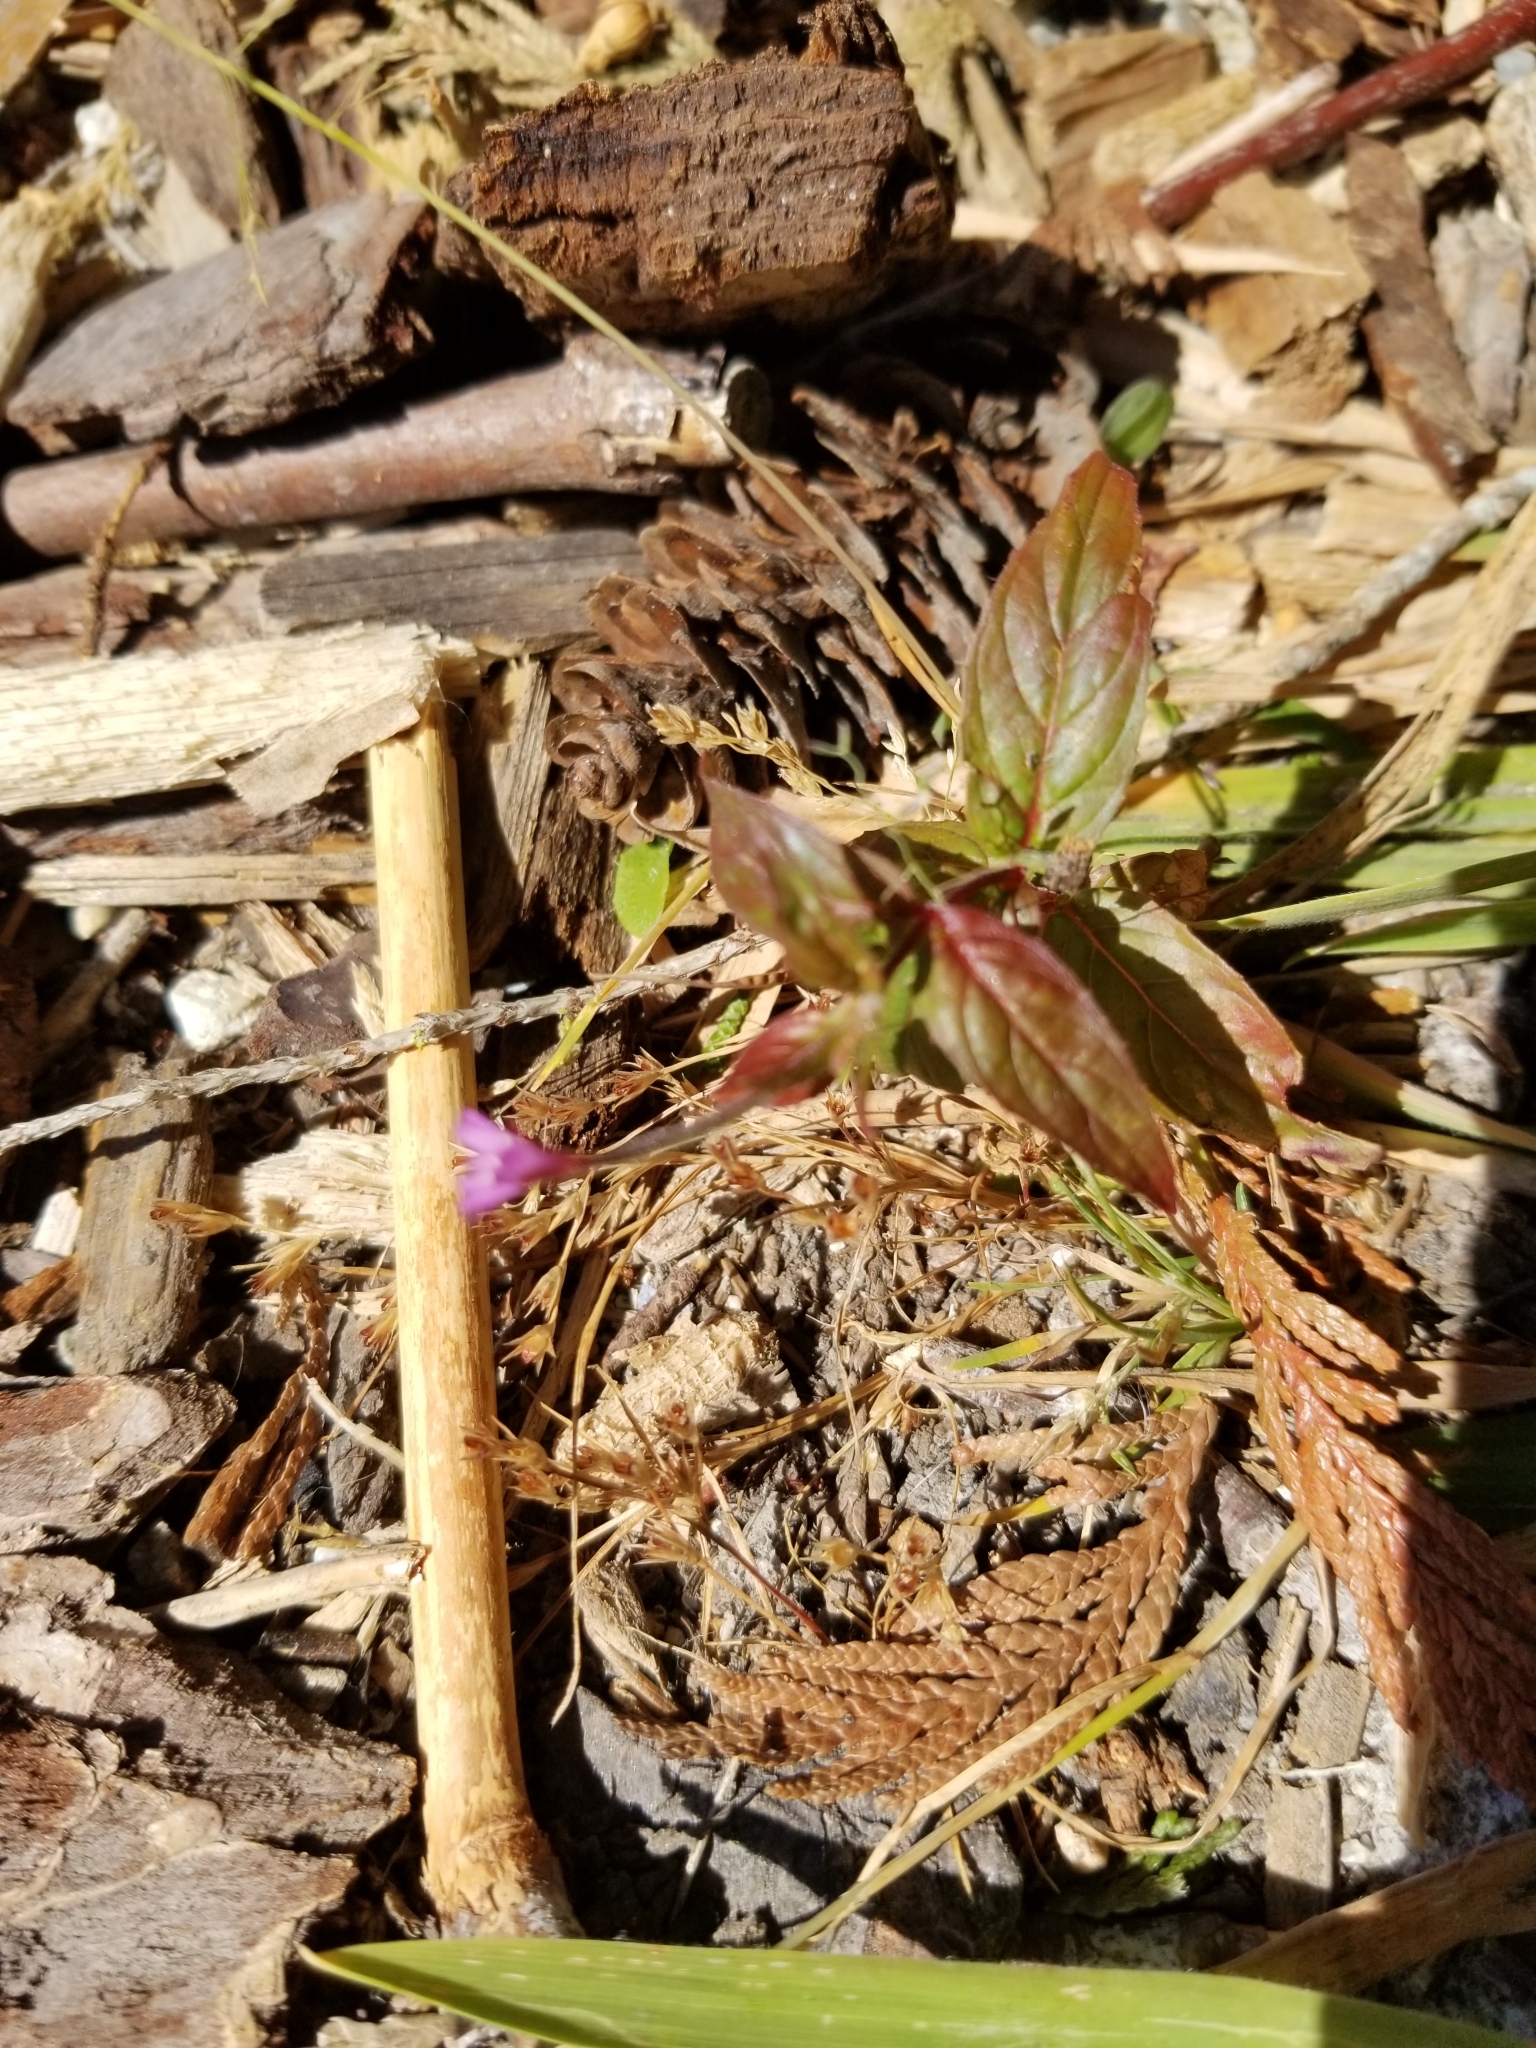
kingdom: Plantae
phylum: Tracheophyta
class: Magnoliopsida
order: Myrtales
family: Onagraceae
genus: Epilobium
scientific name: Epilobium ciliatum
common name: American willowherb
